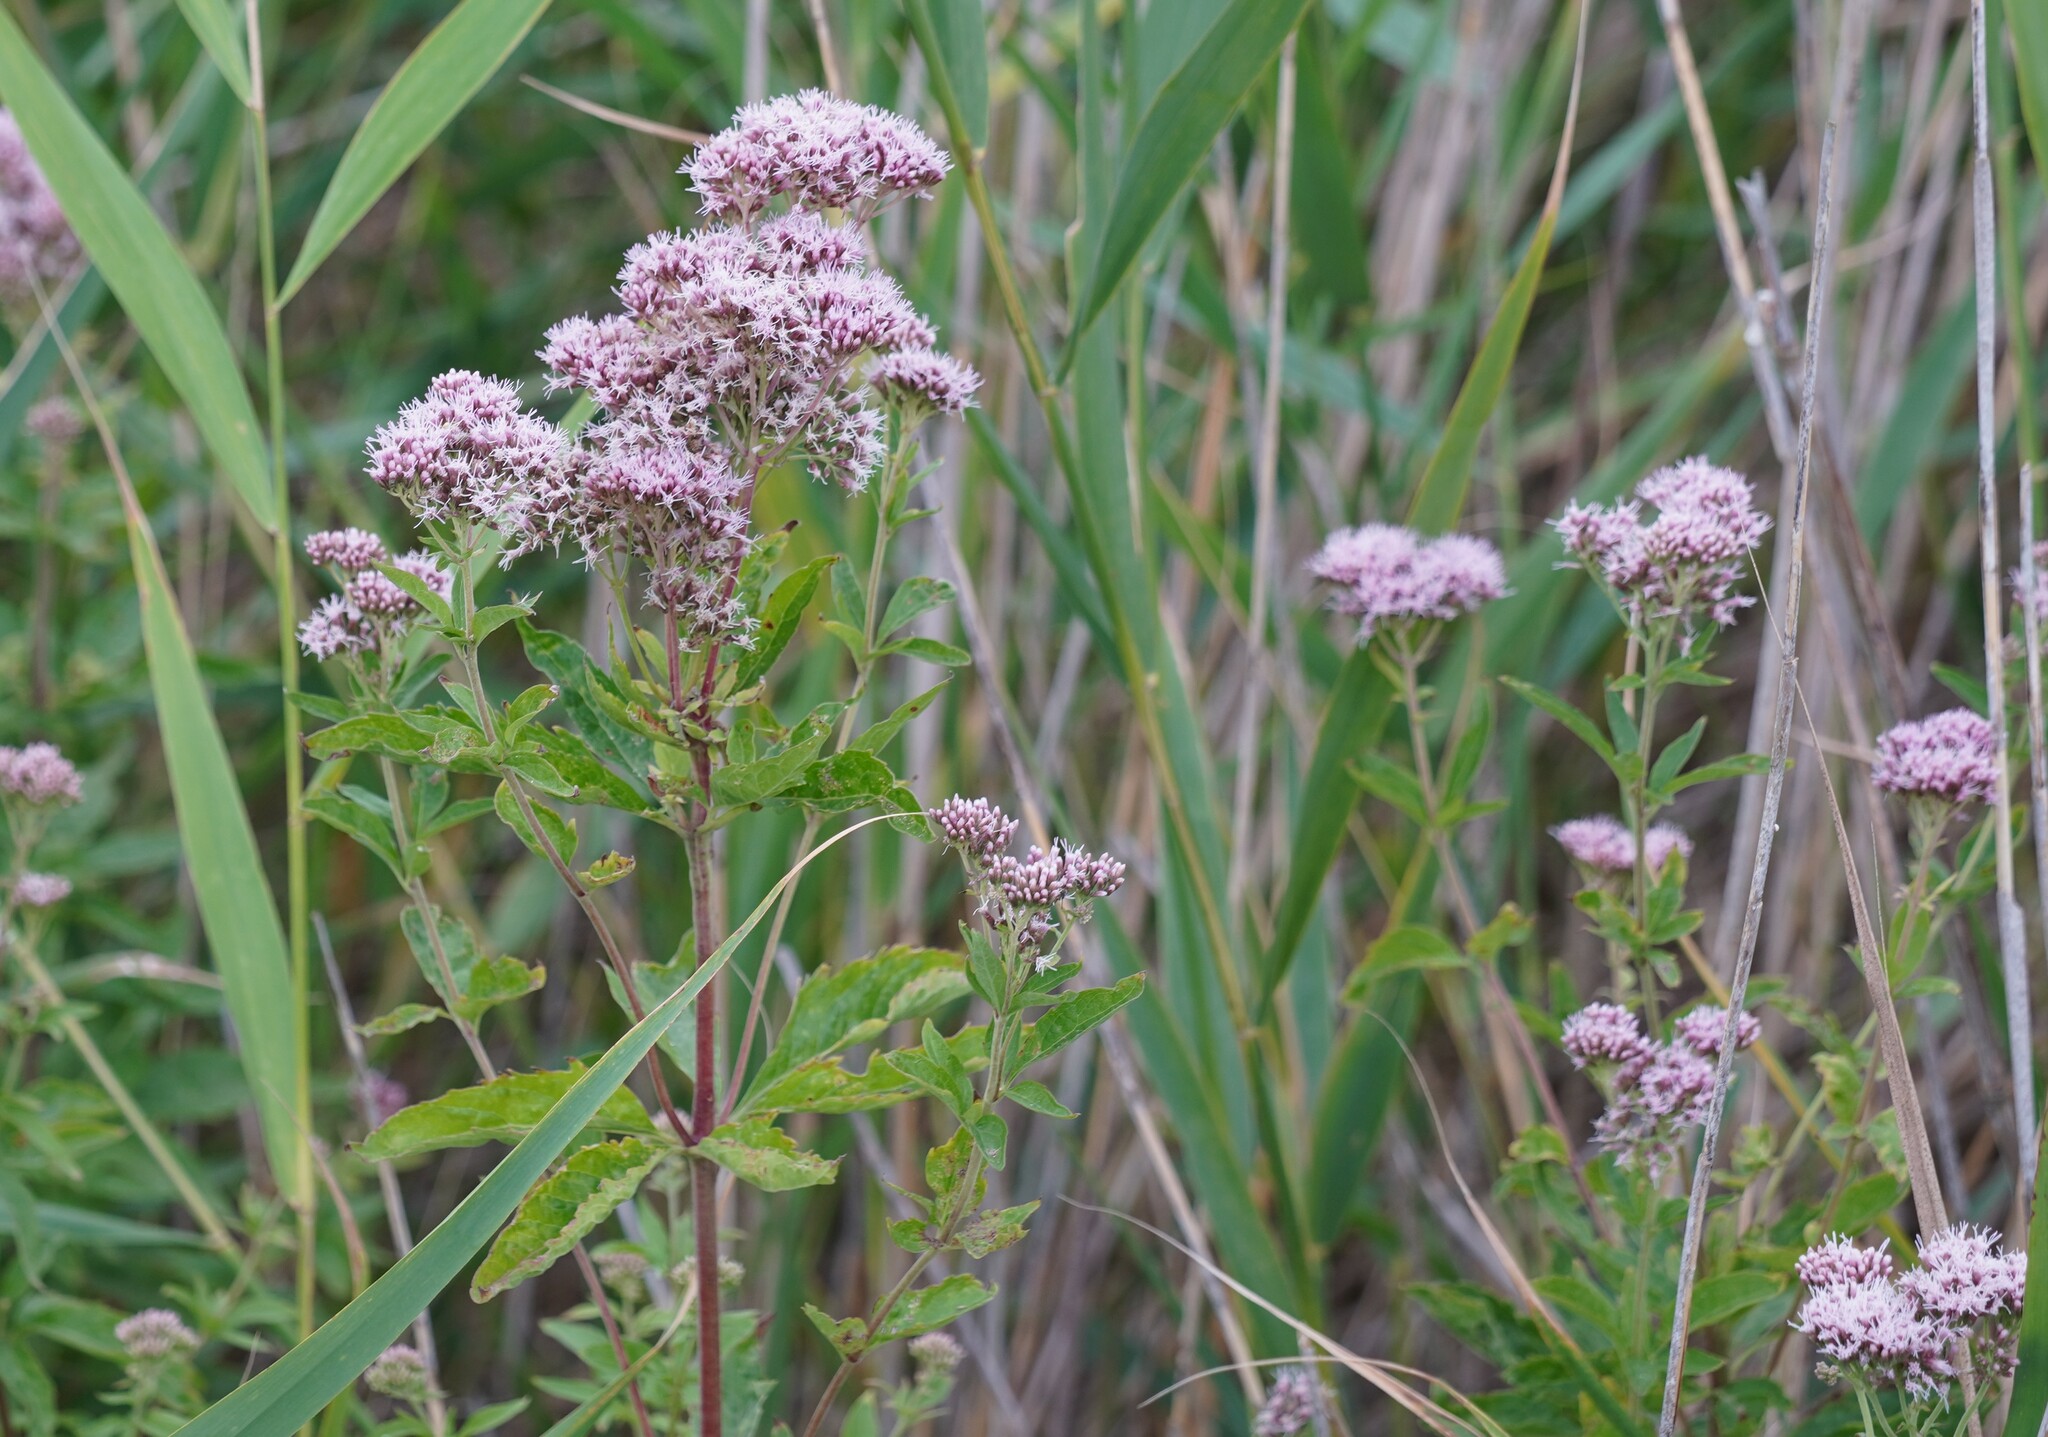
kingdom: Plantae
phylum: Tracheophyta
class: Magnoliopsida
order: Asterales
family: Asteraceae
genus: Eupatorium
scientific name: Eupatorium cannabinum
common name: Hemp-agrimony
